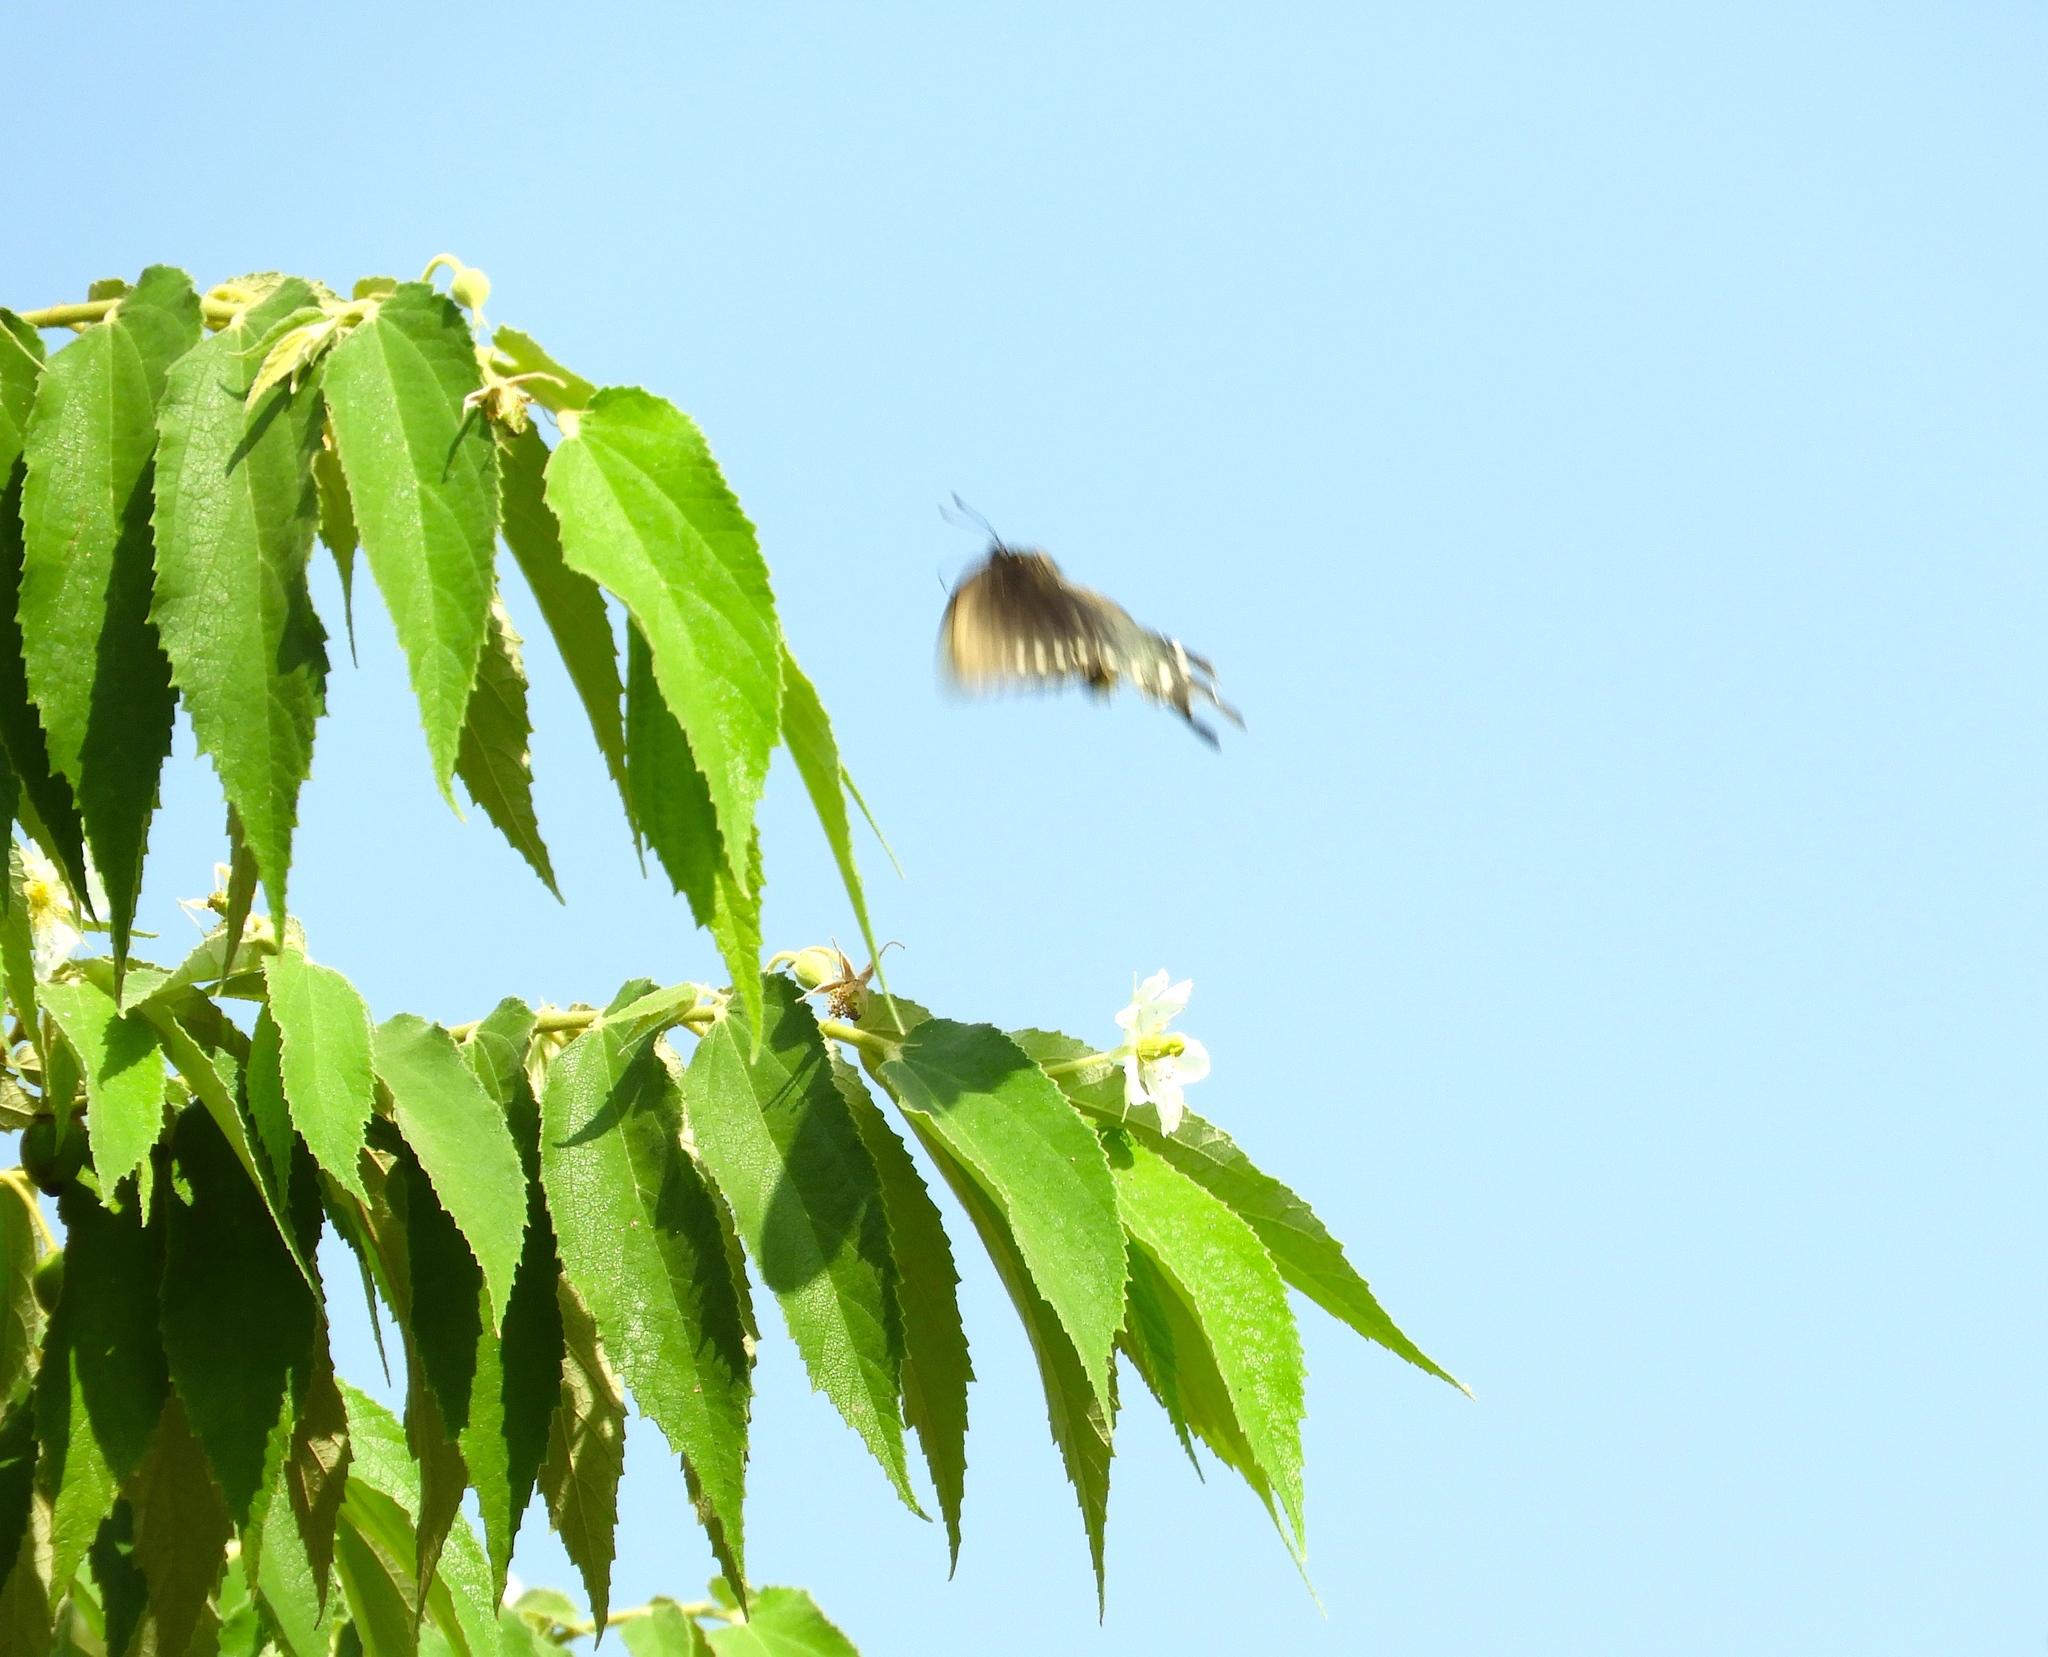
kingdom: Animalia
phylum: Arthropoda
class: Insecta
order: Lepidoptera
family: Papilionidae
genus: Battus
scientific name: Battus philenor
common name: Pipevine swallowtail
